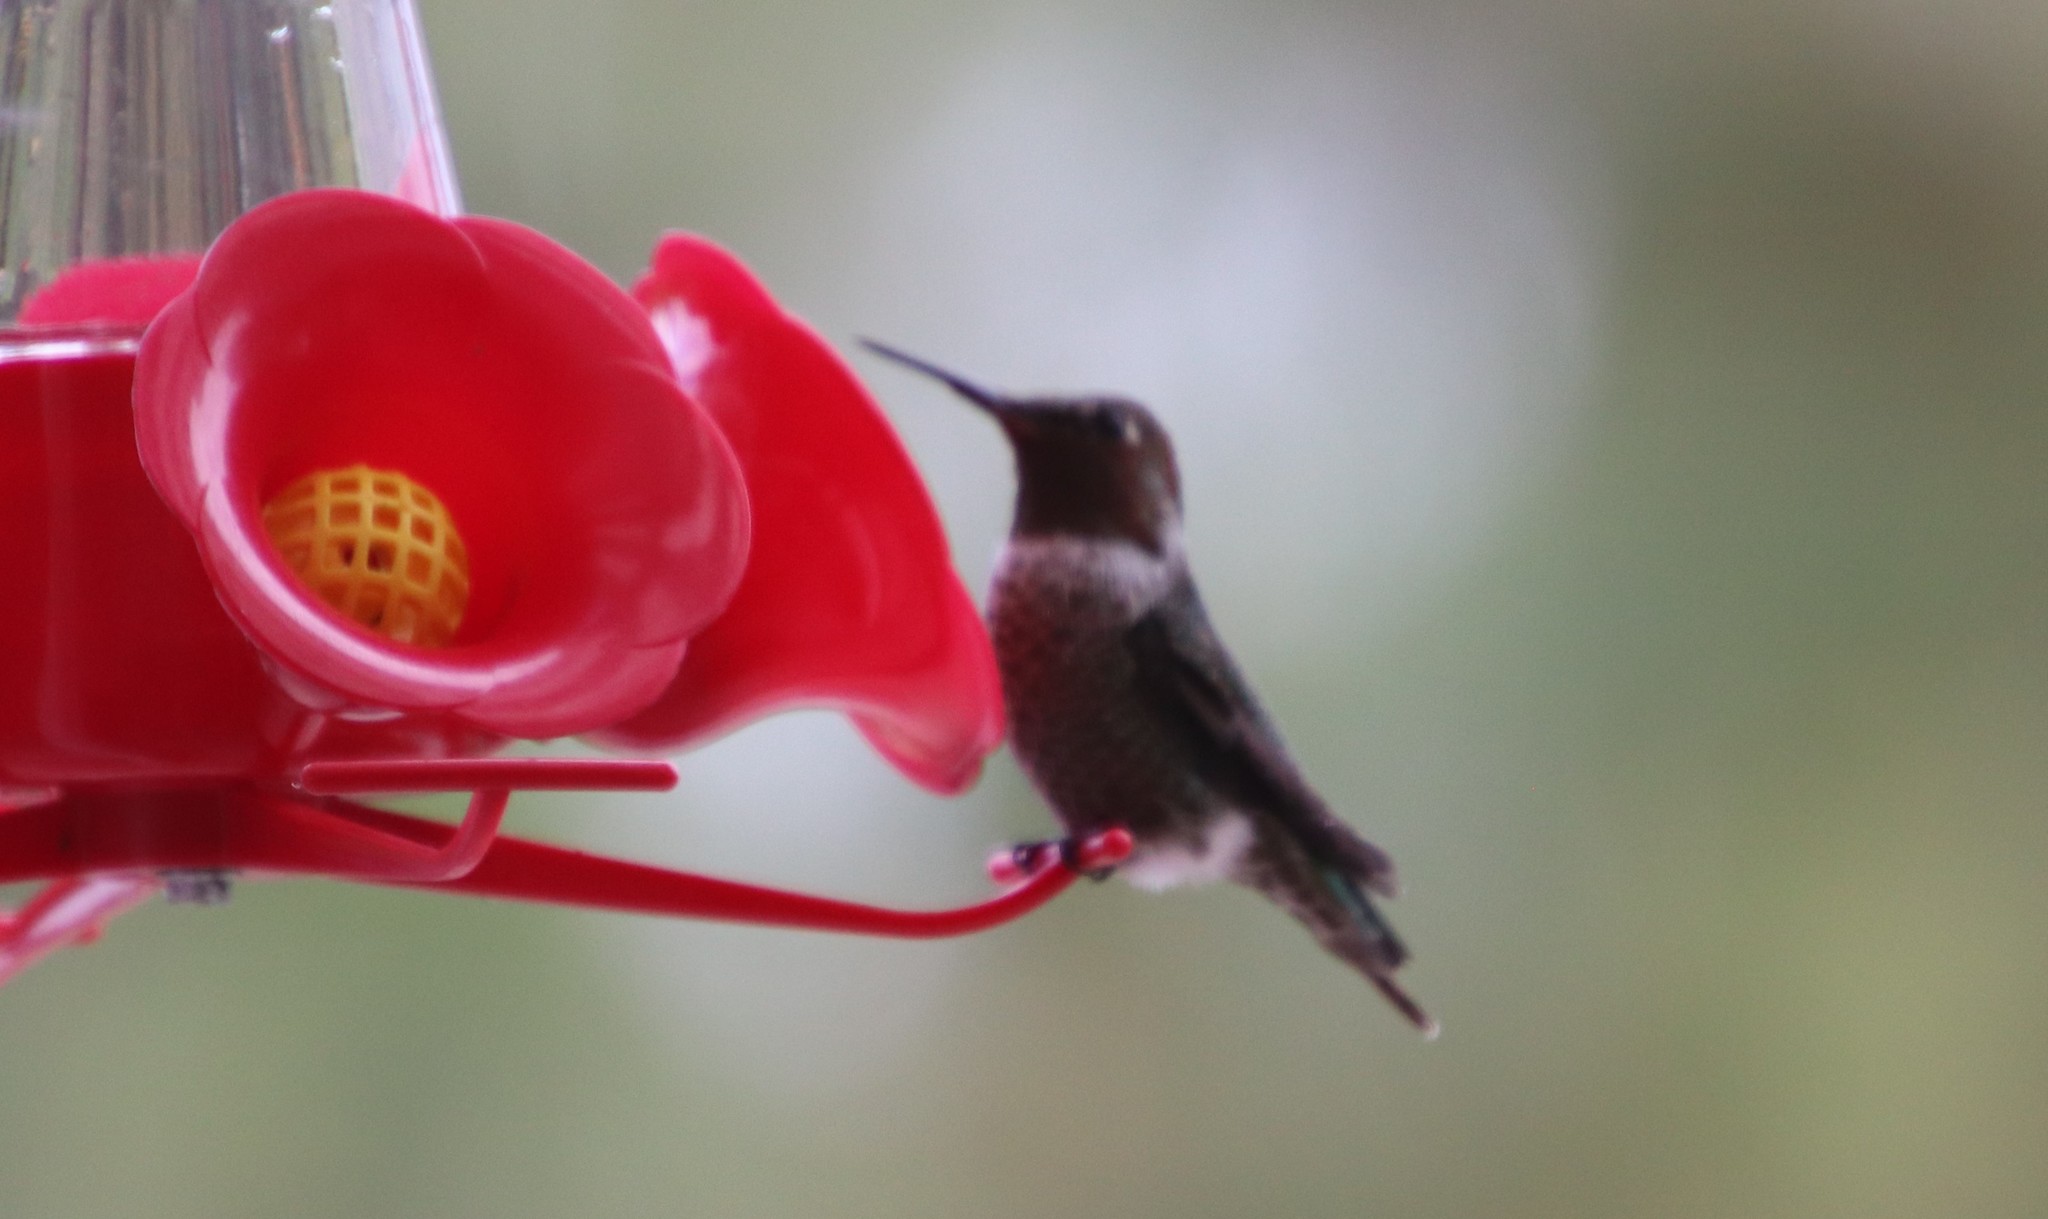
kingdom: Animalia
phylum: Chordata
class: Aves
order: Apodiformes
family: Trochilidae
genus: Calypte
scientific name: Calypte anna
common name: Anna's hummingbird
